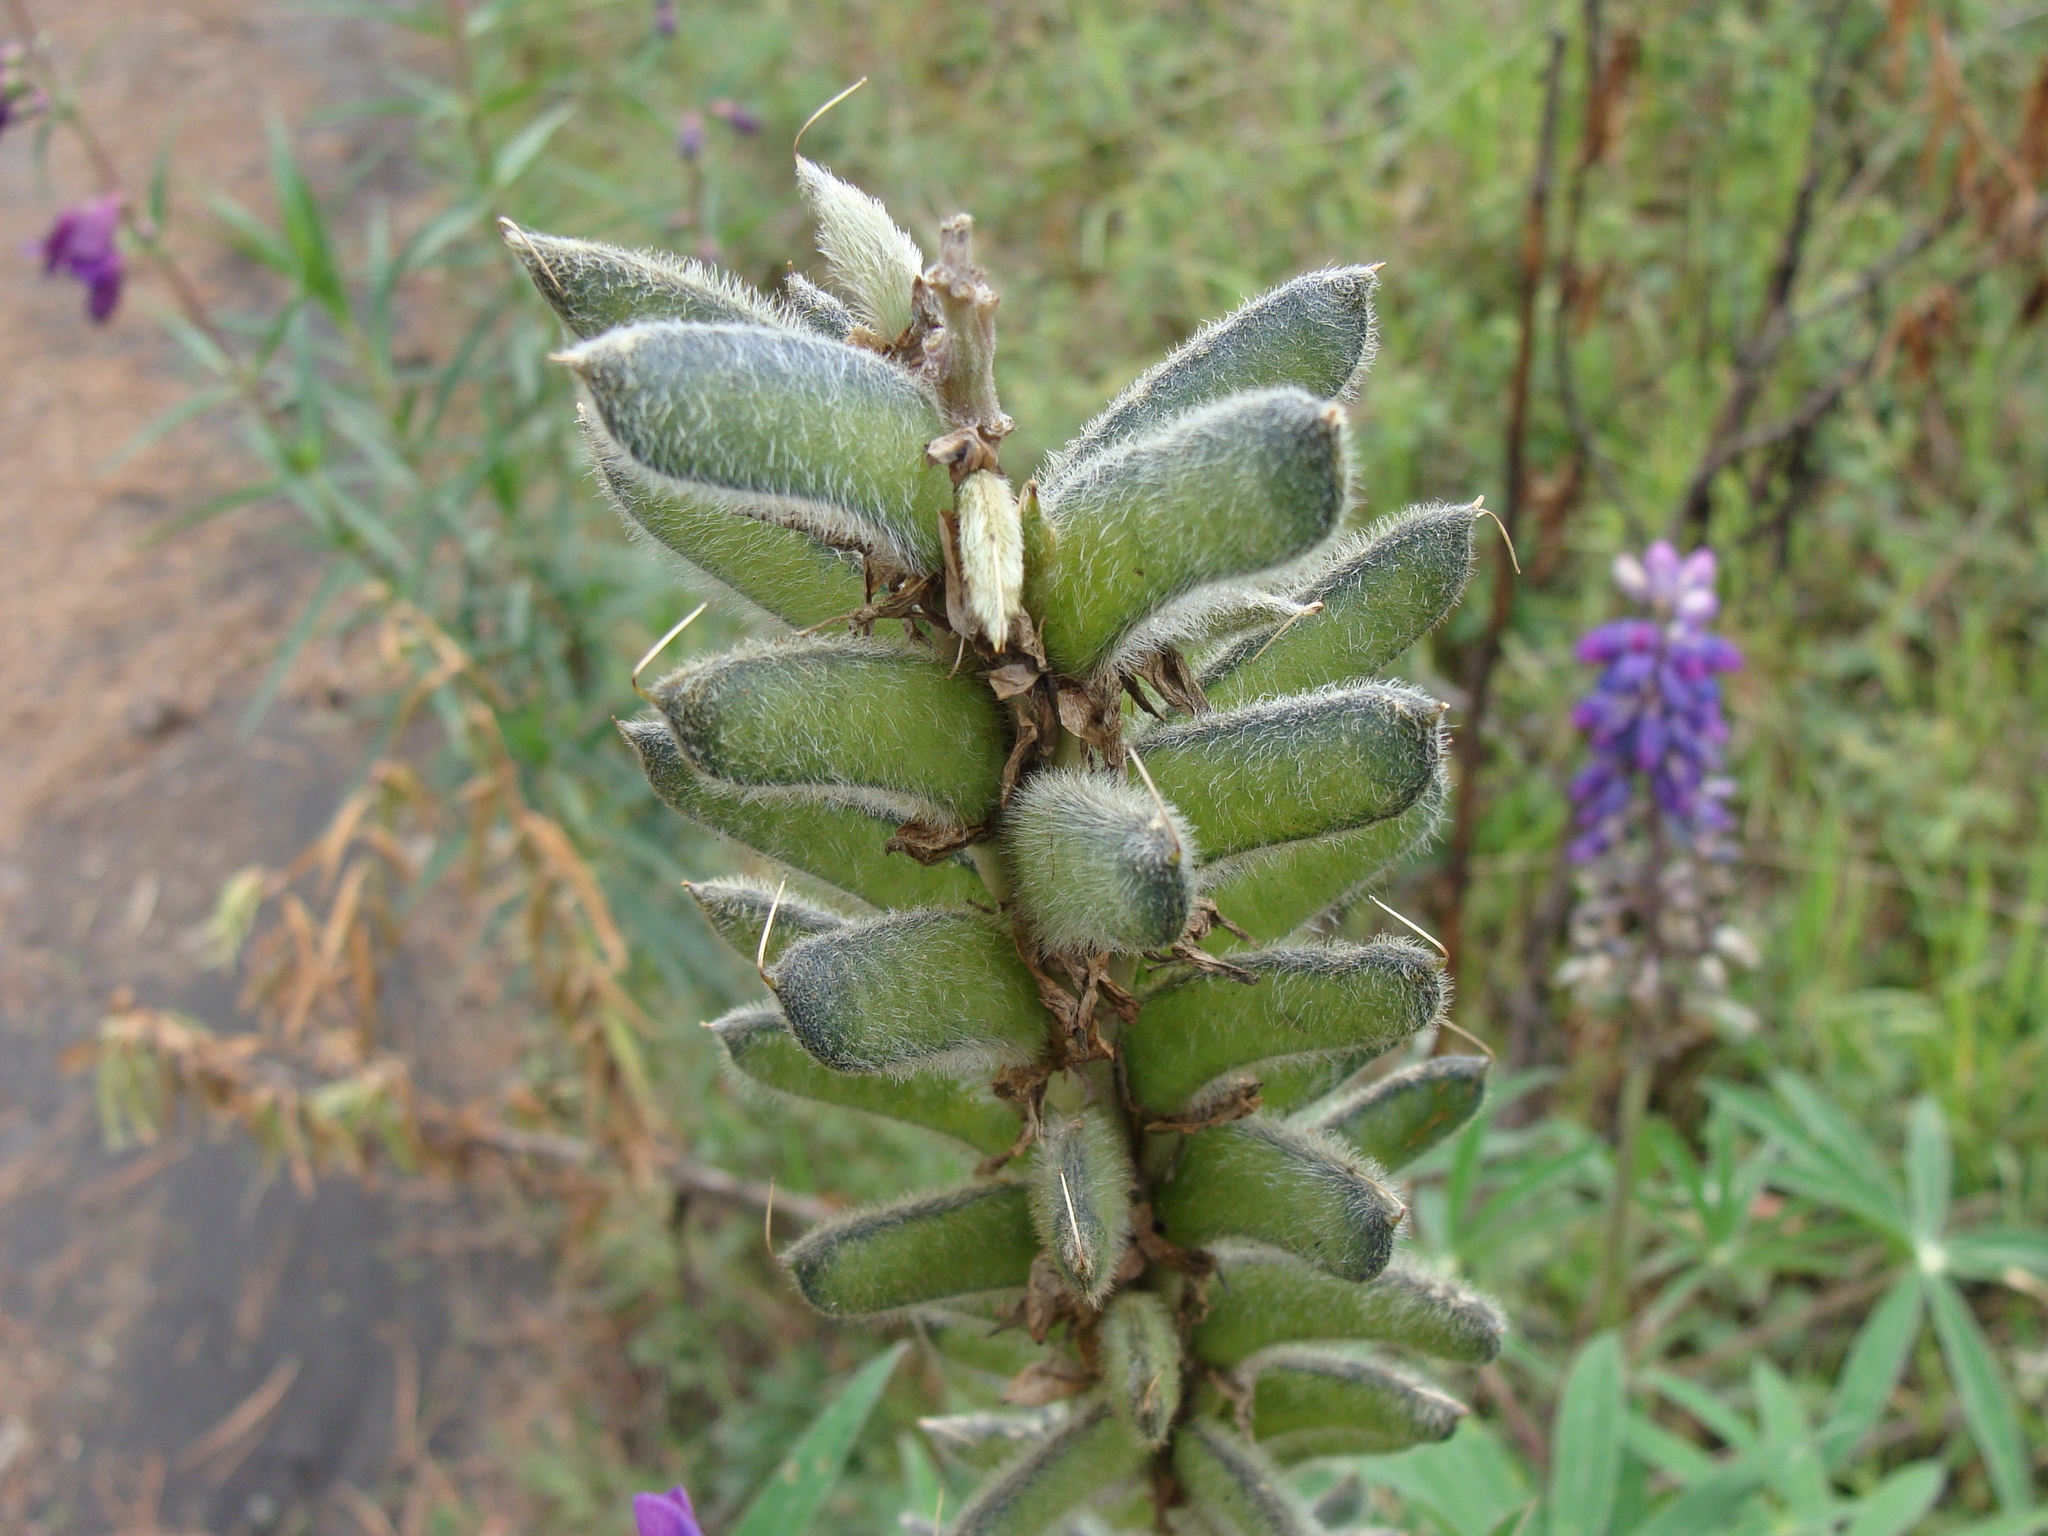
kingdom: Plantae
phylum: Tracheophyta
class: Magnoliopsida
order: Fabales
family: Fabaceae
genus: Lupinus
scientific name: Lupinus montanus
